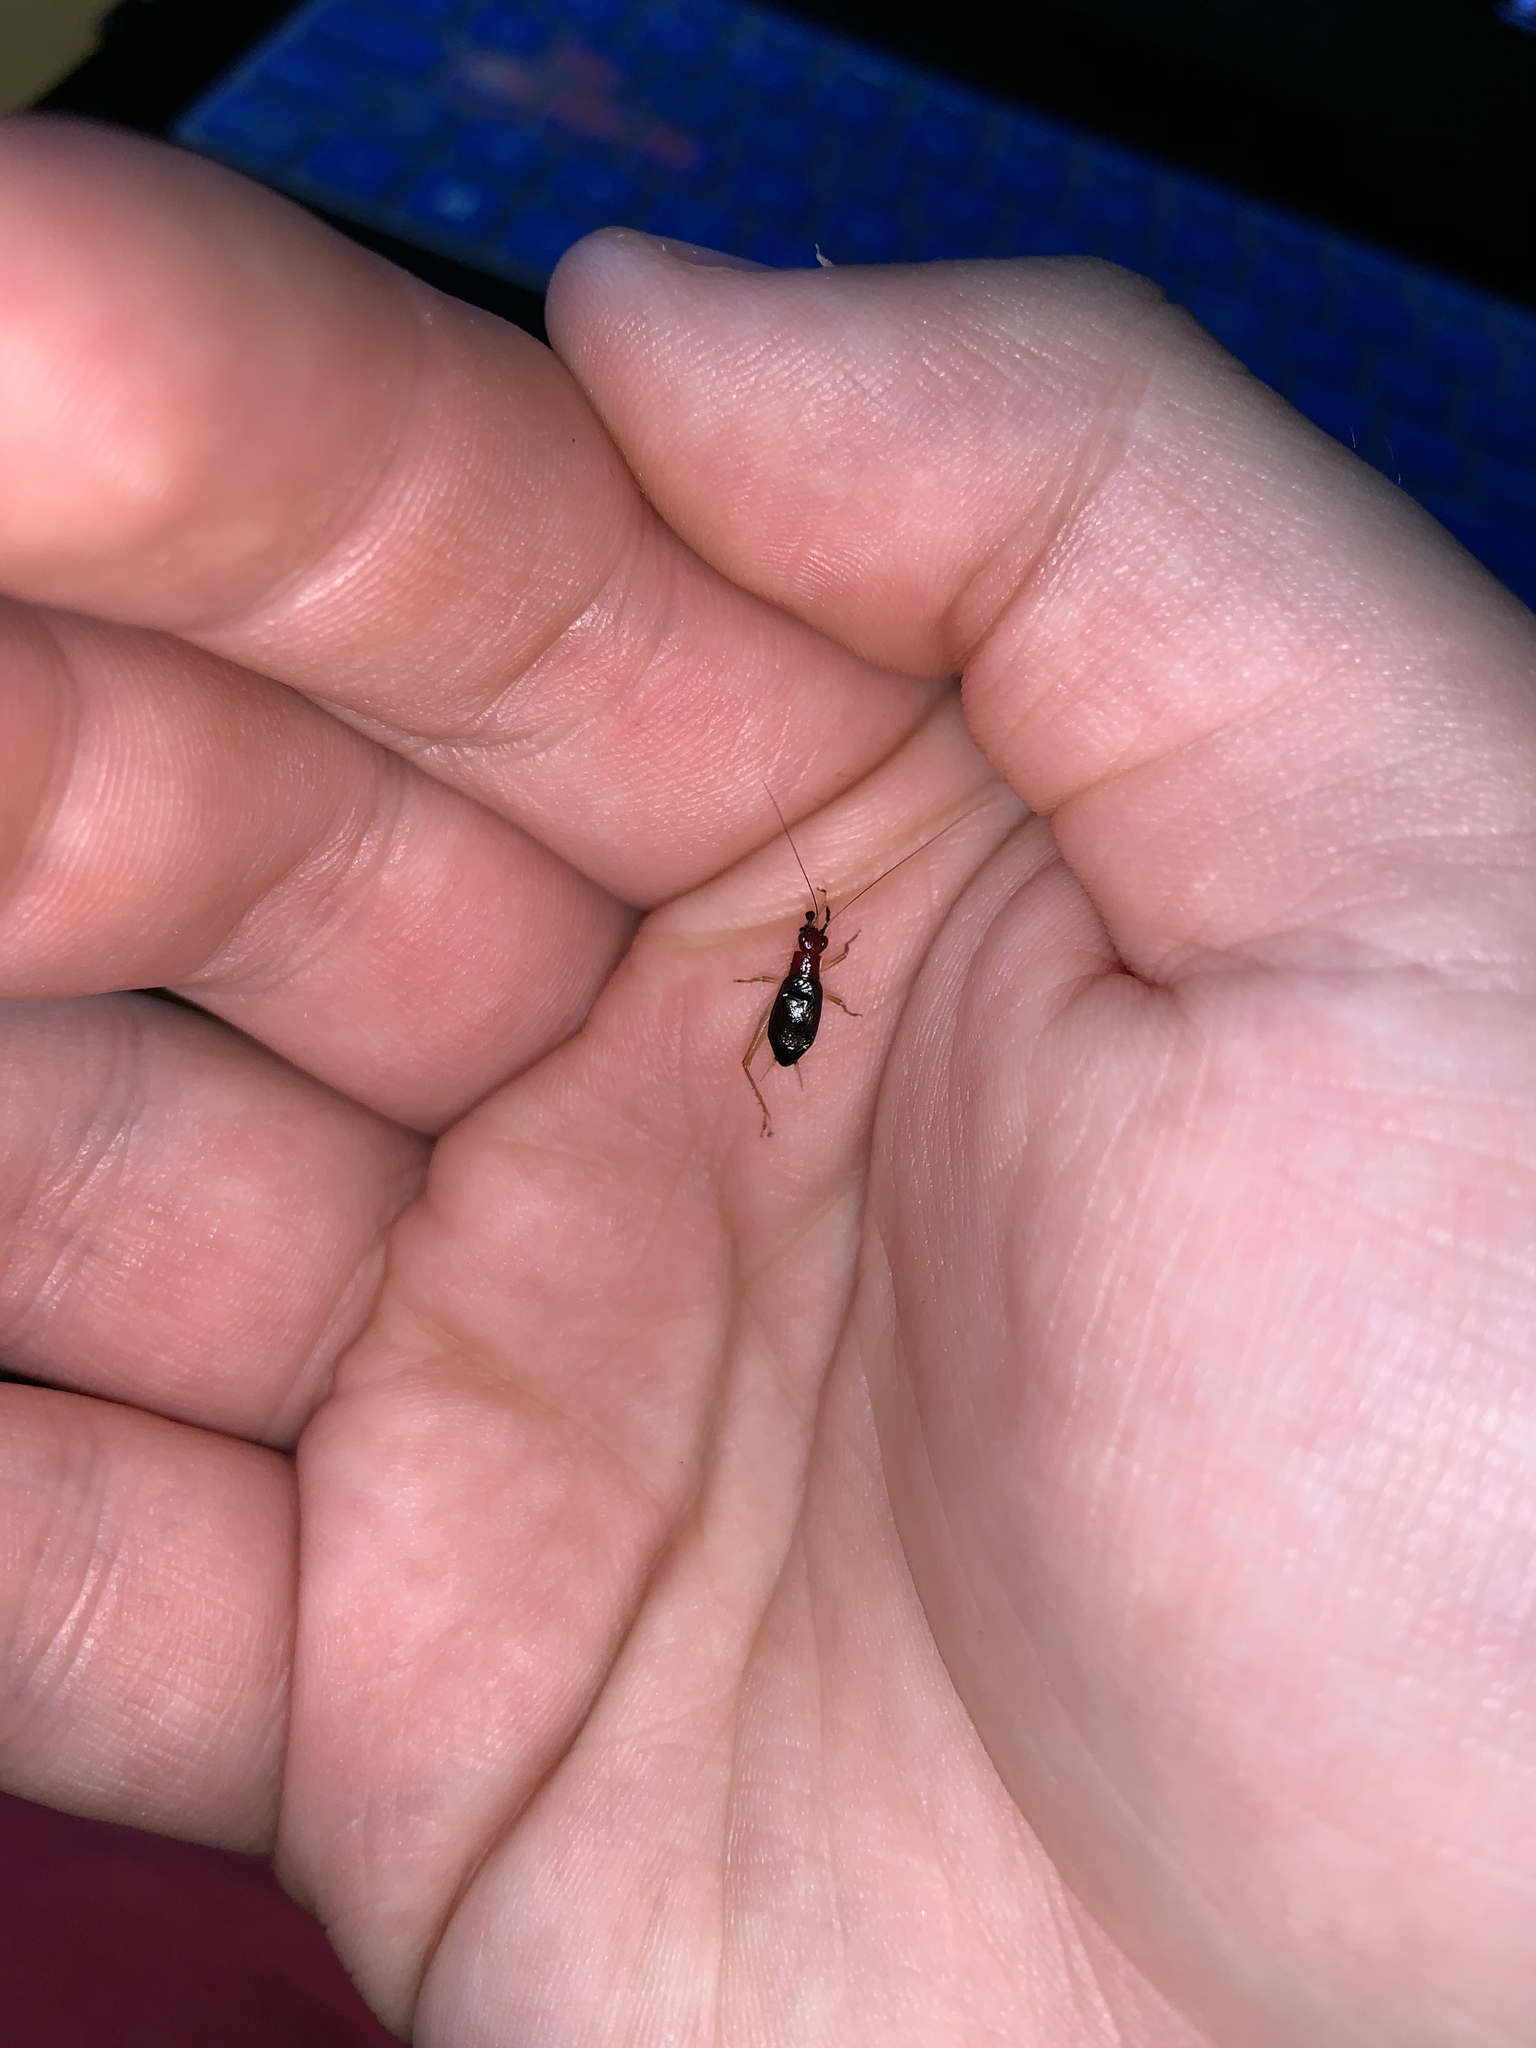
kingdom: Animalia
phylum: Arthropoda
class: Insecta
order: Orthoptera
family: Trigonidiidae
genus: Phyllopalpus
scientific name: Phyllopalpus pulchellus
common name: Handsome trig
